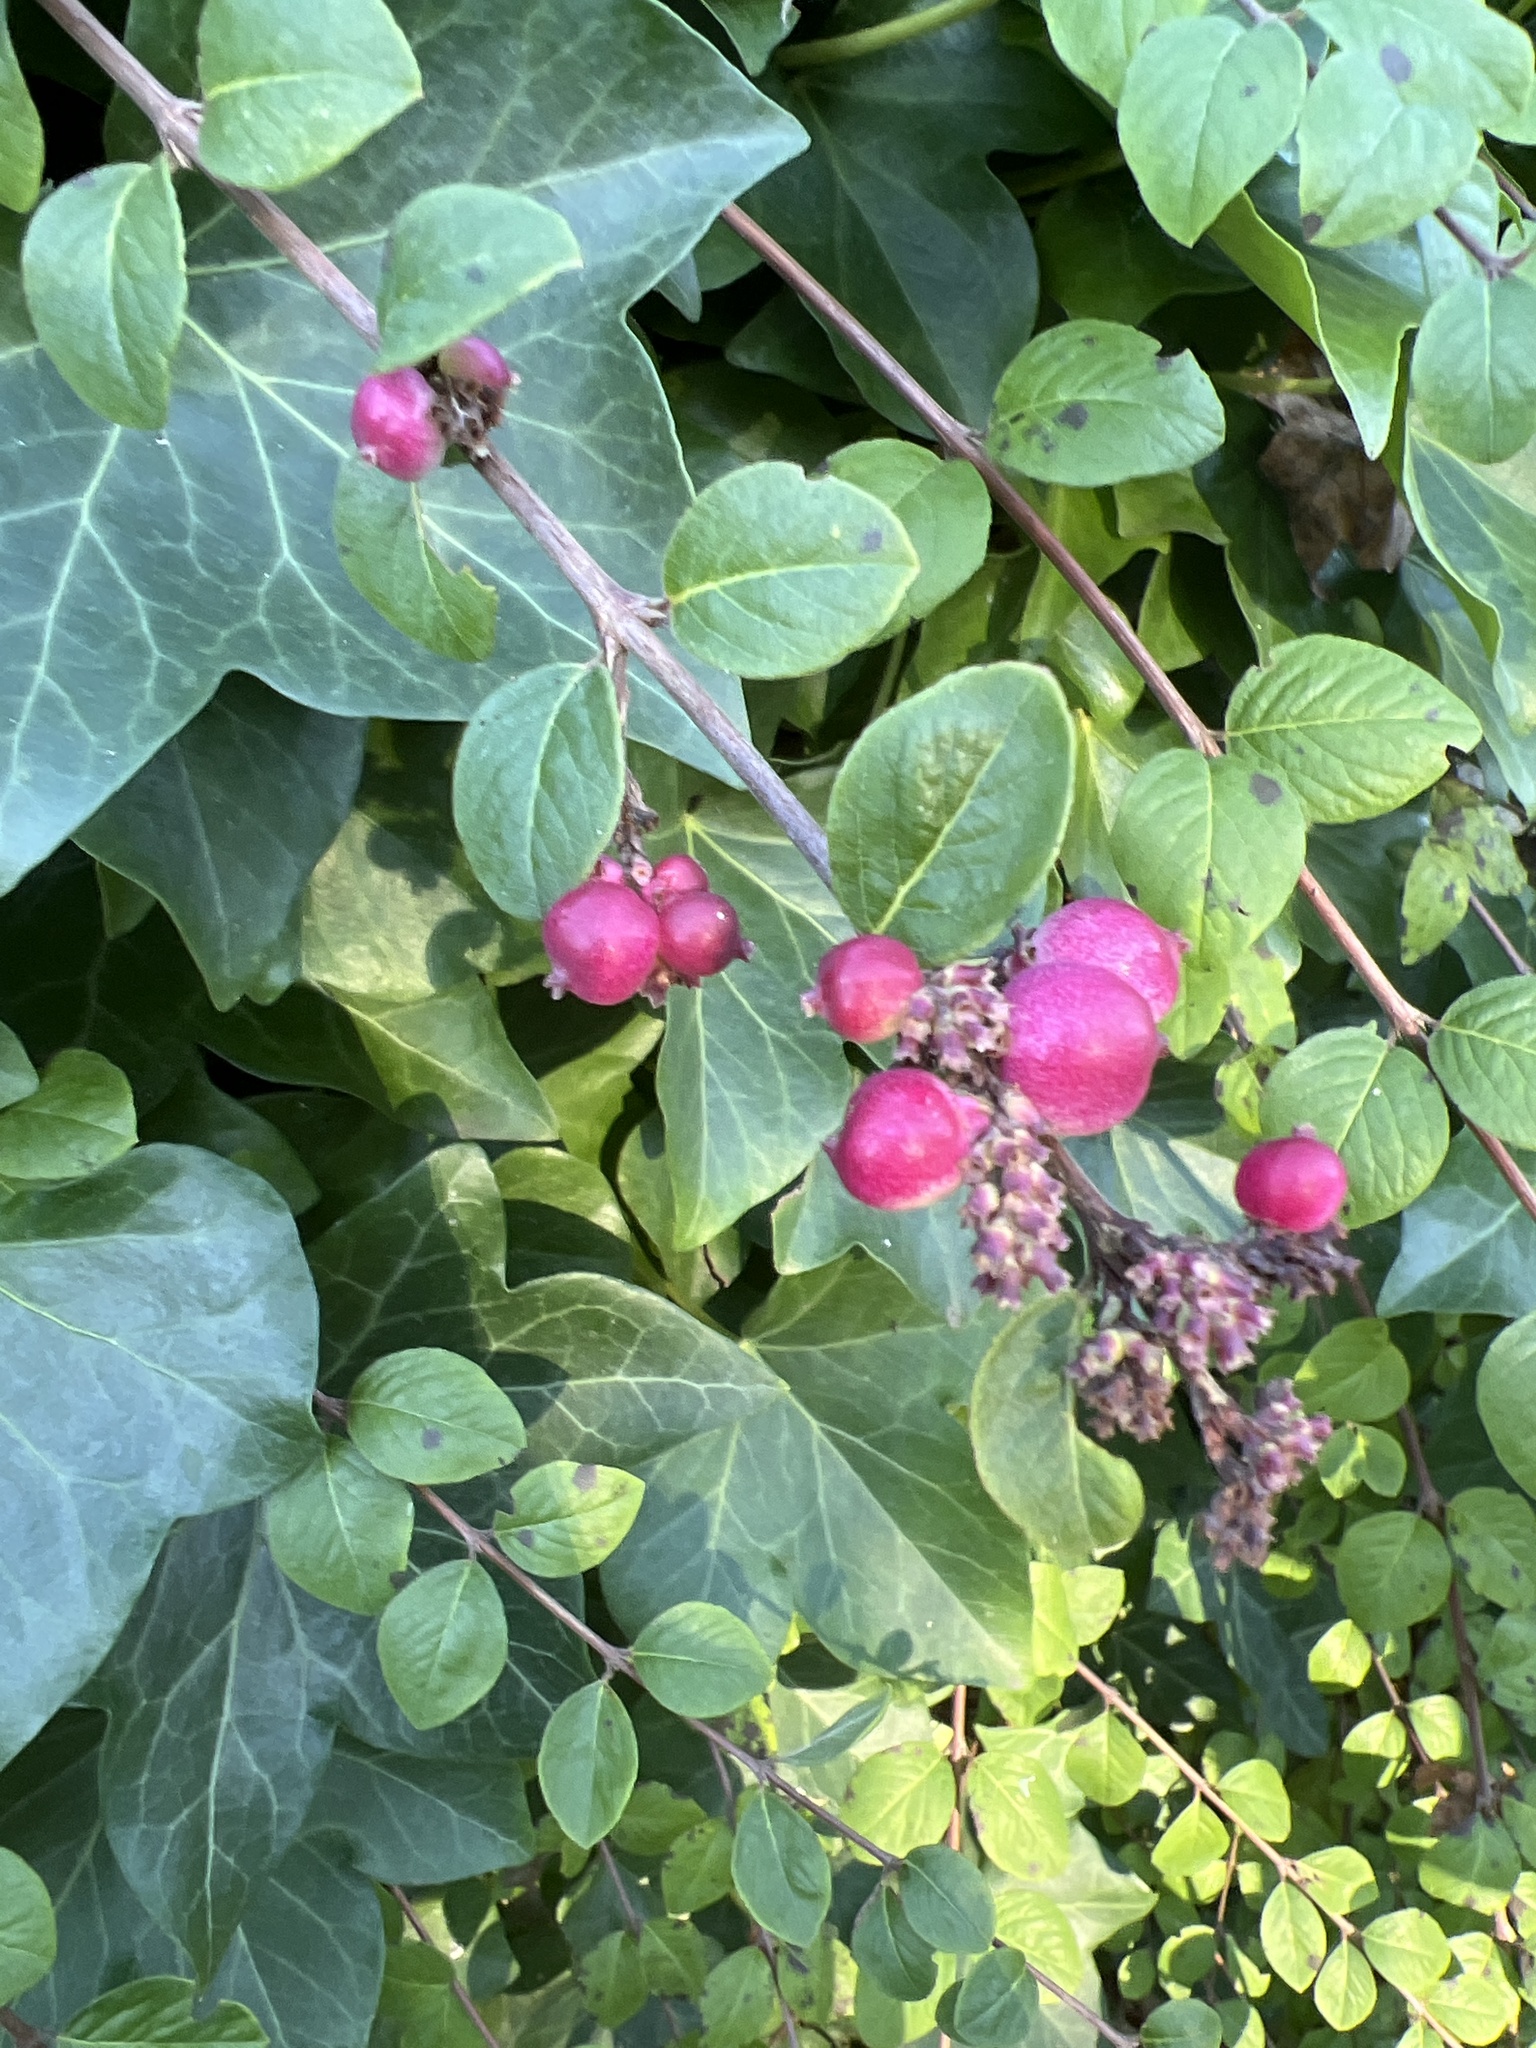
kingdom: Plantae
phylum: Tracheophyta
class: Magnoliopsida
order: Dipsacales
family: Caprifoliaceae
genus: Symphoricarpos
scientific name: Symphoricarpos orbiculatus
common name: Coralberry
